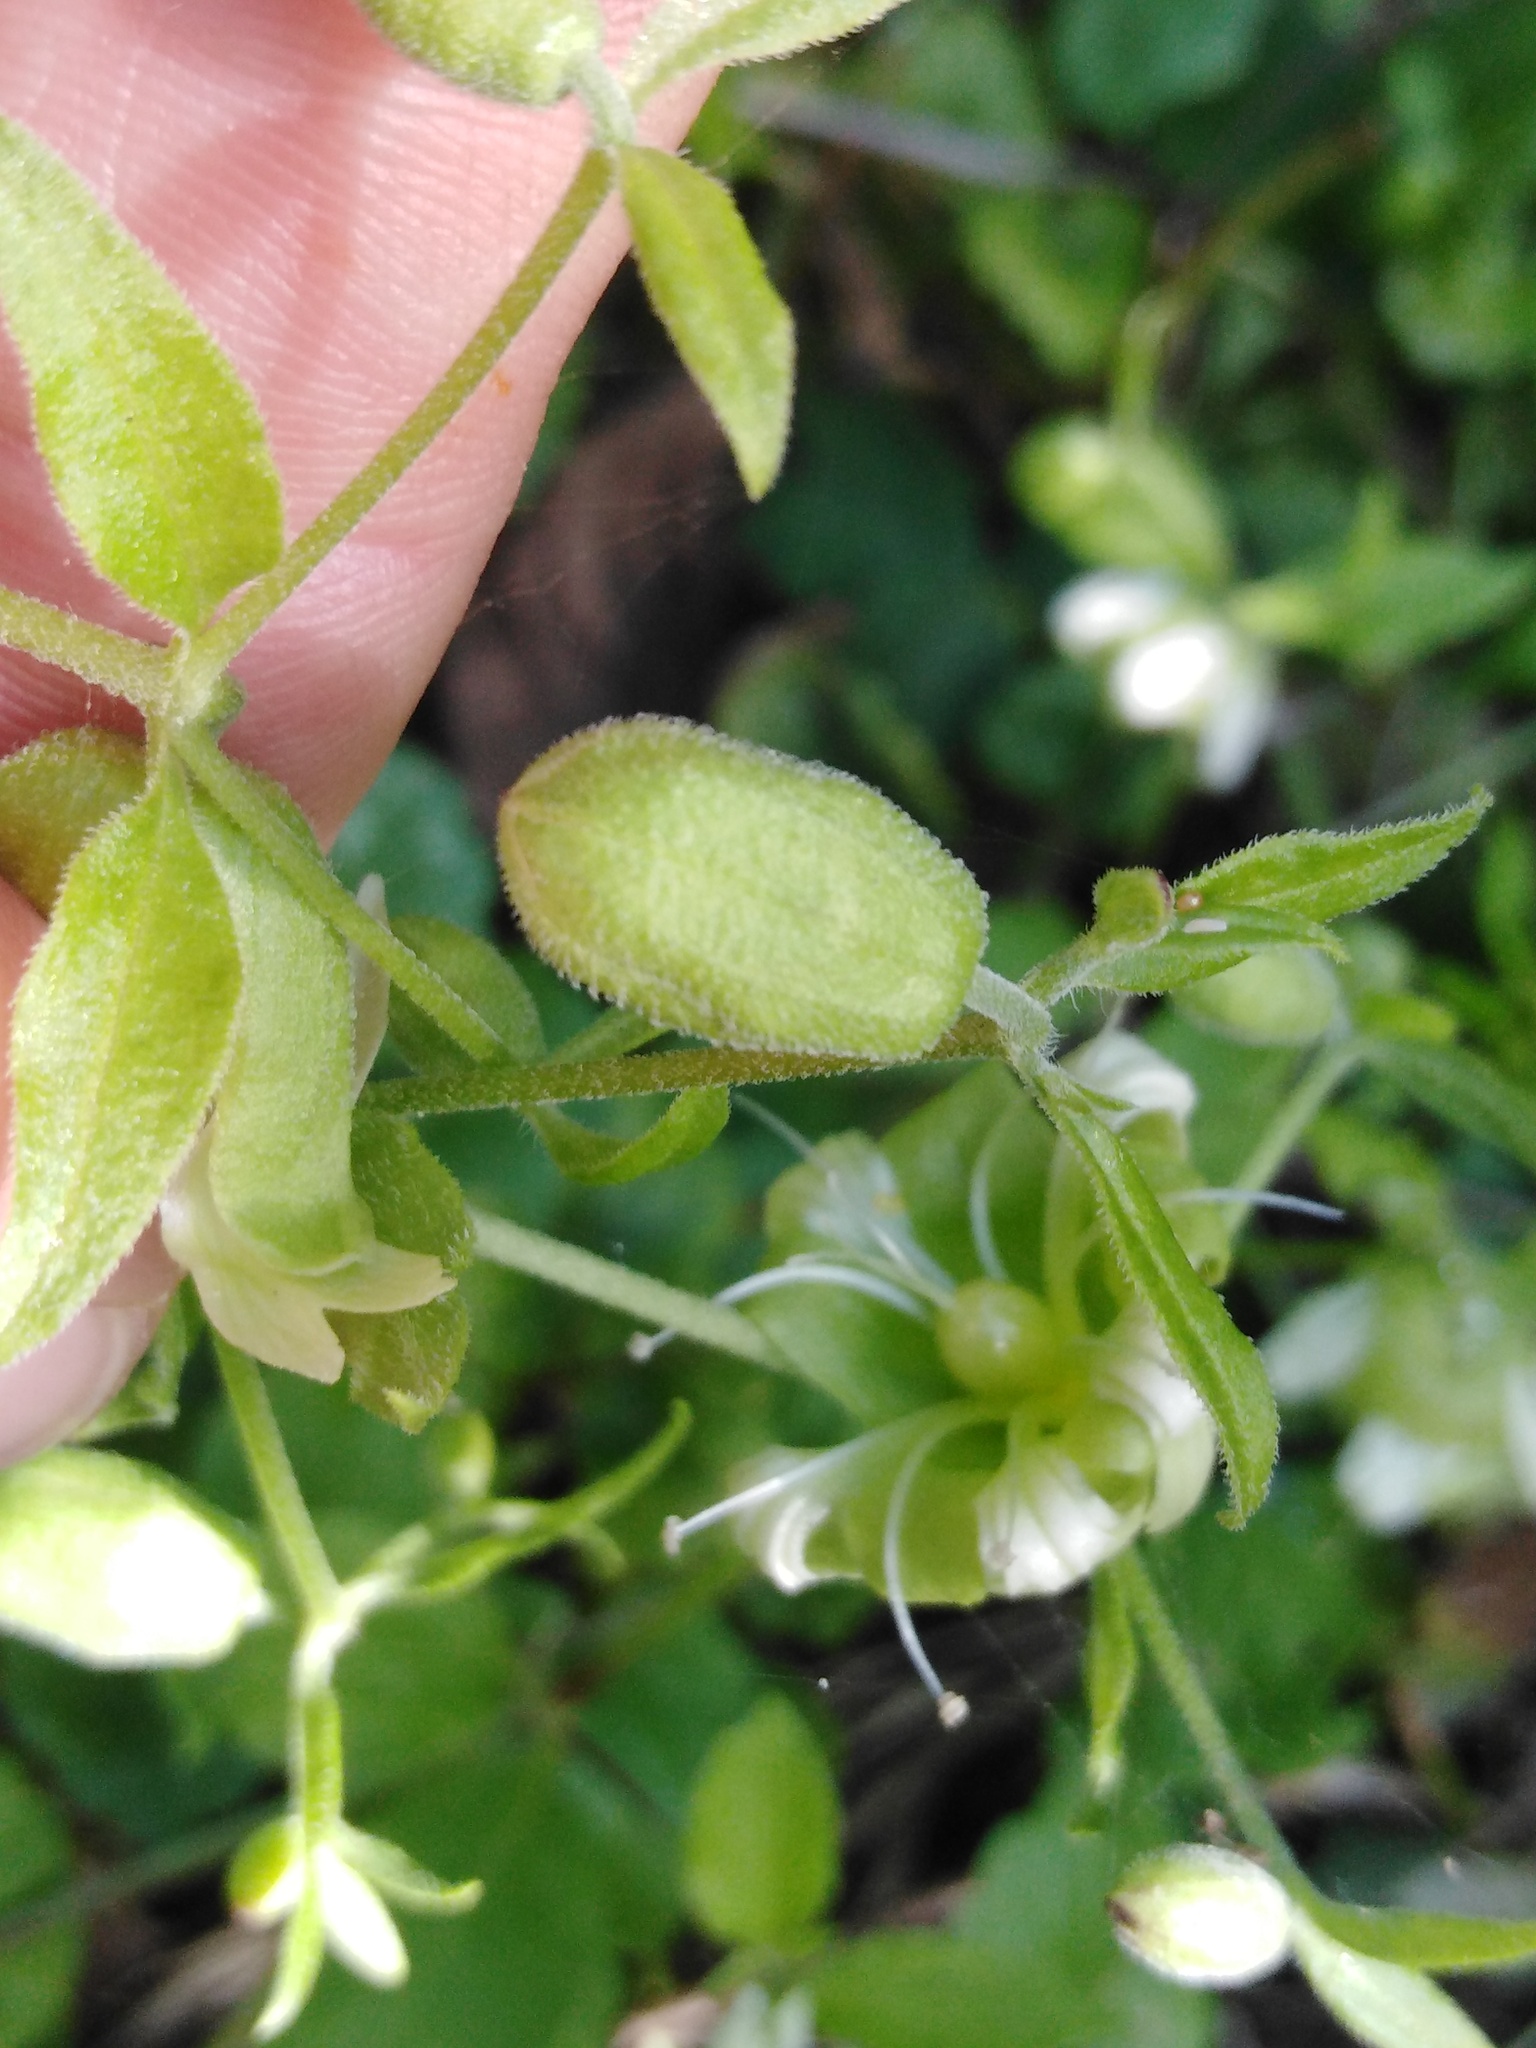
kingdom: Plantae
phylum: Tracheophyta
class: Magnoliopsida
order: Caryophyllales
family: Caryophyllaceae
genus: Silene
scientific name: Silene baccifera
